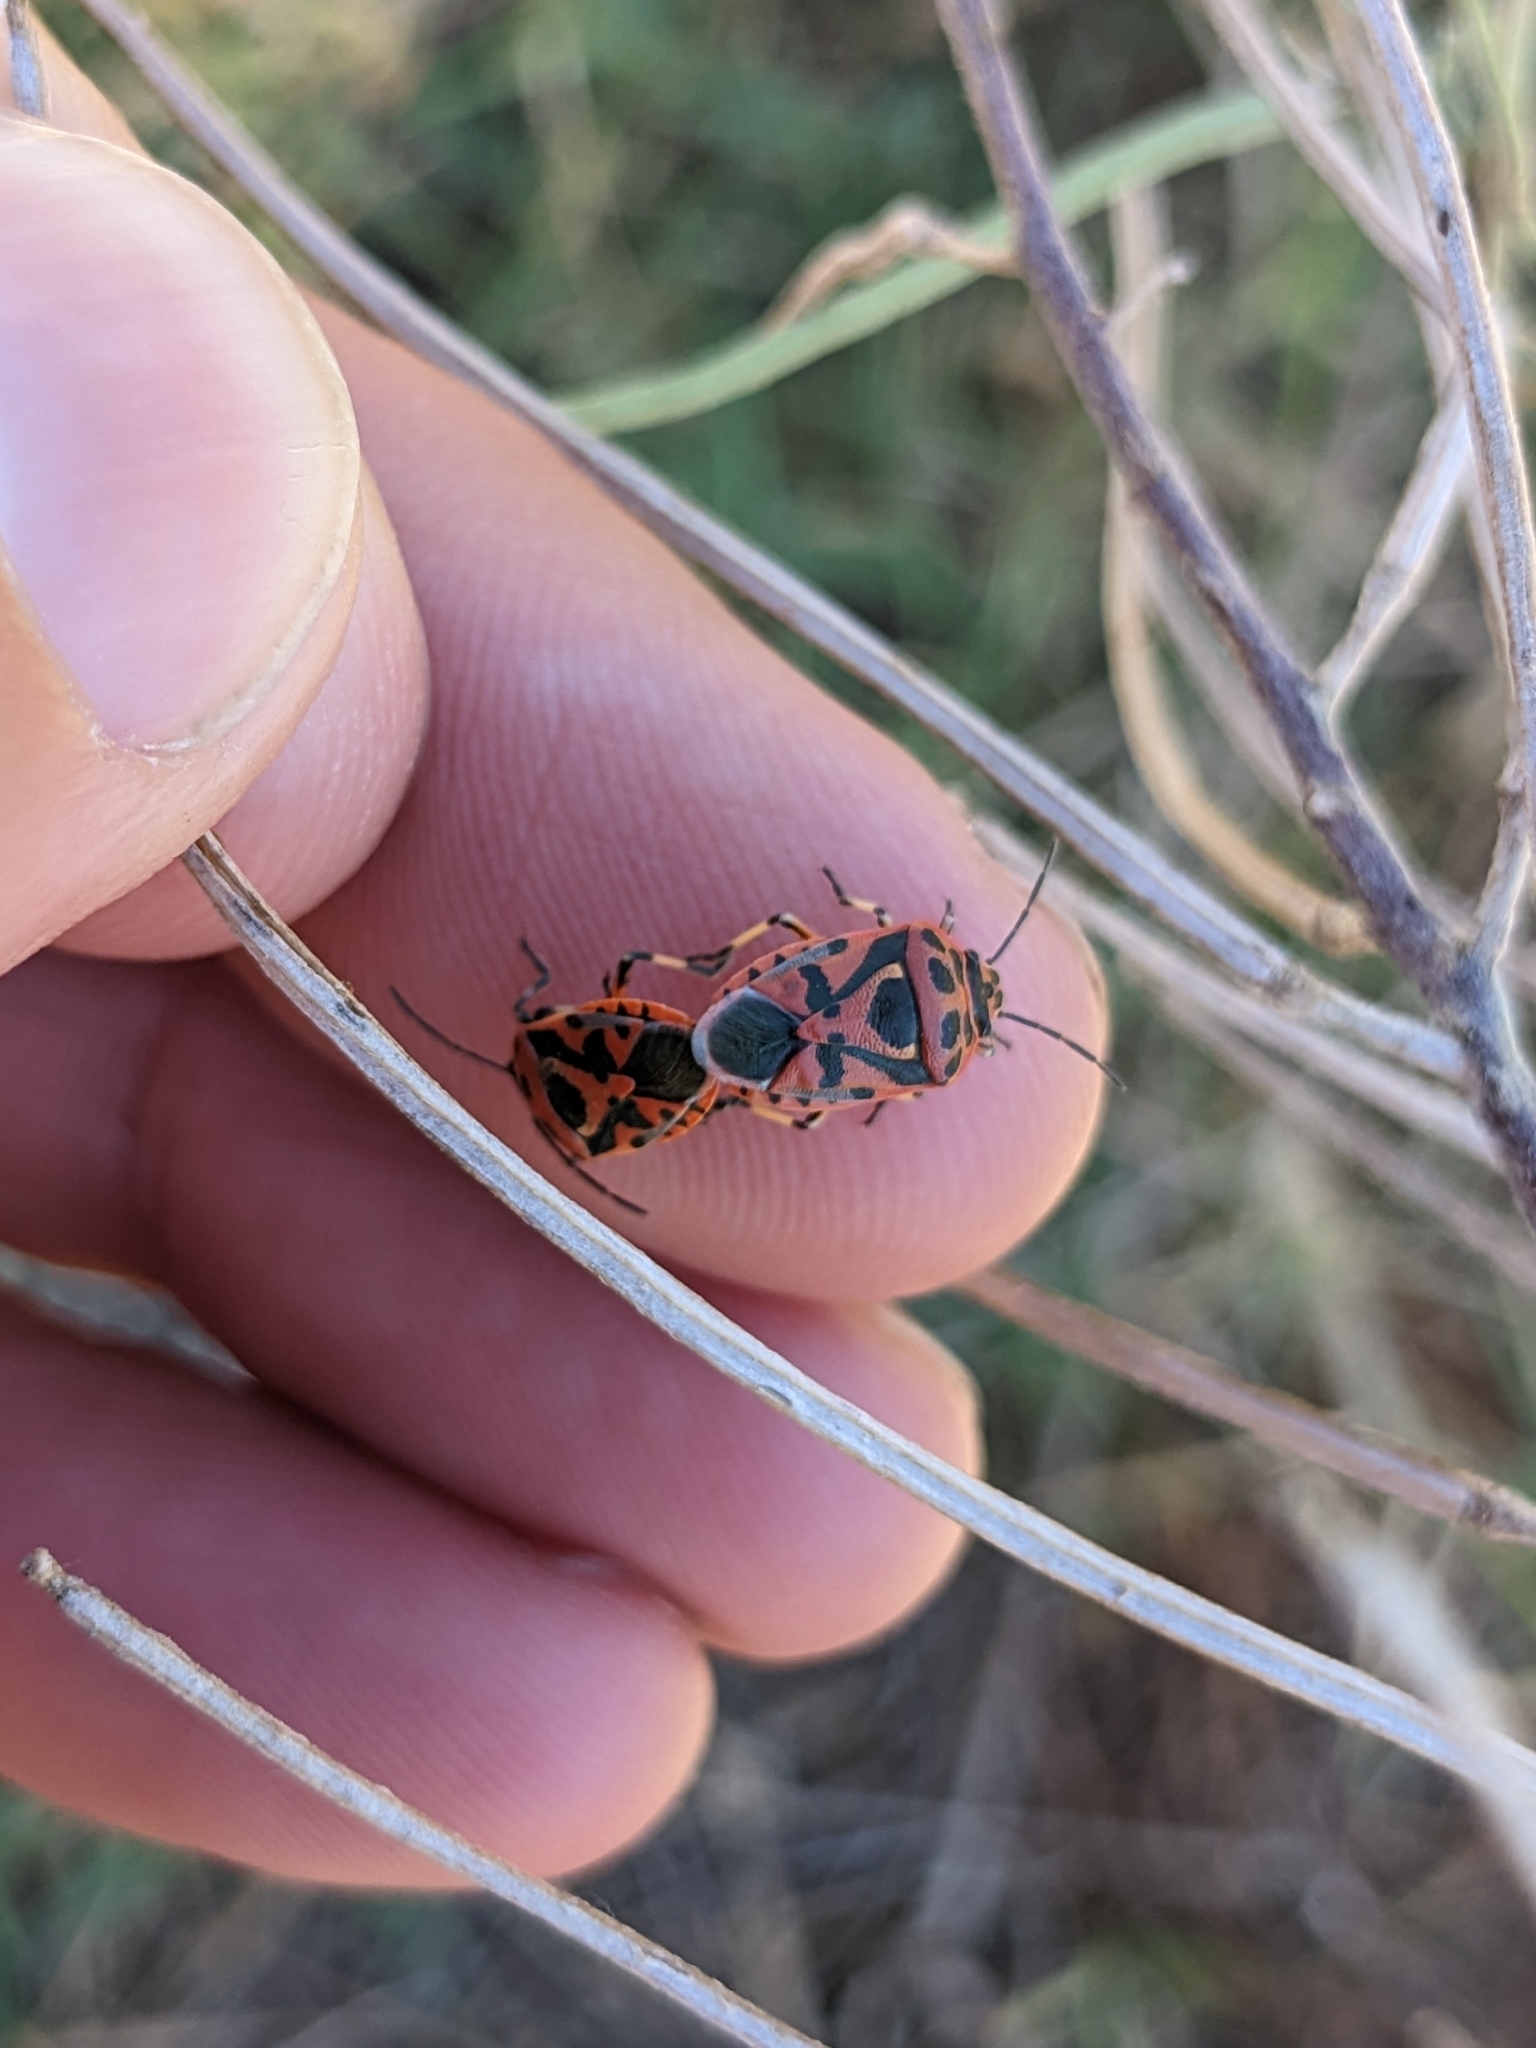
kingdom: Animalia
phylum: Arthropoda
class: Insecta
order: Hemiptera
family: Pentatomidae
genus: Eurydema
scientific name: Eurydema ornata
